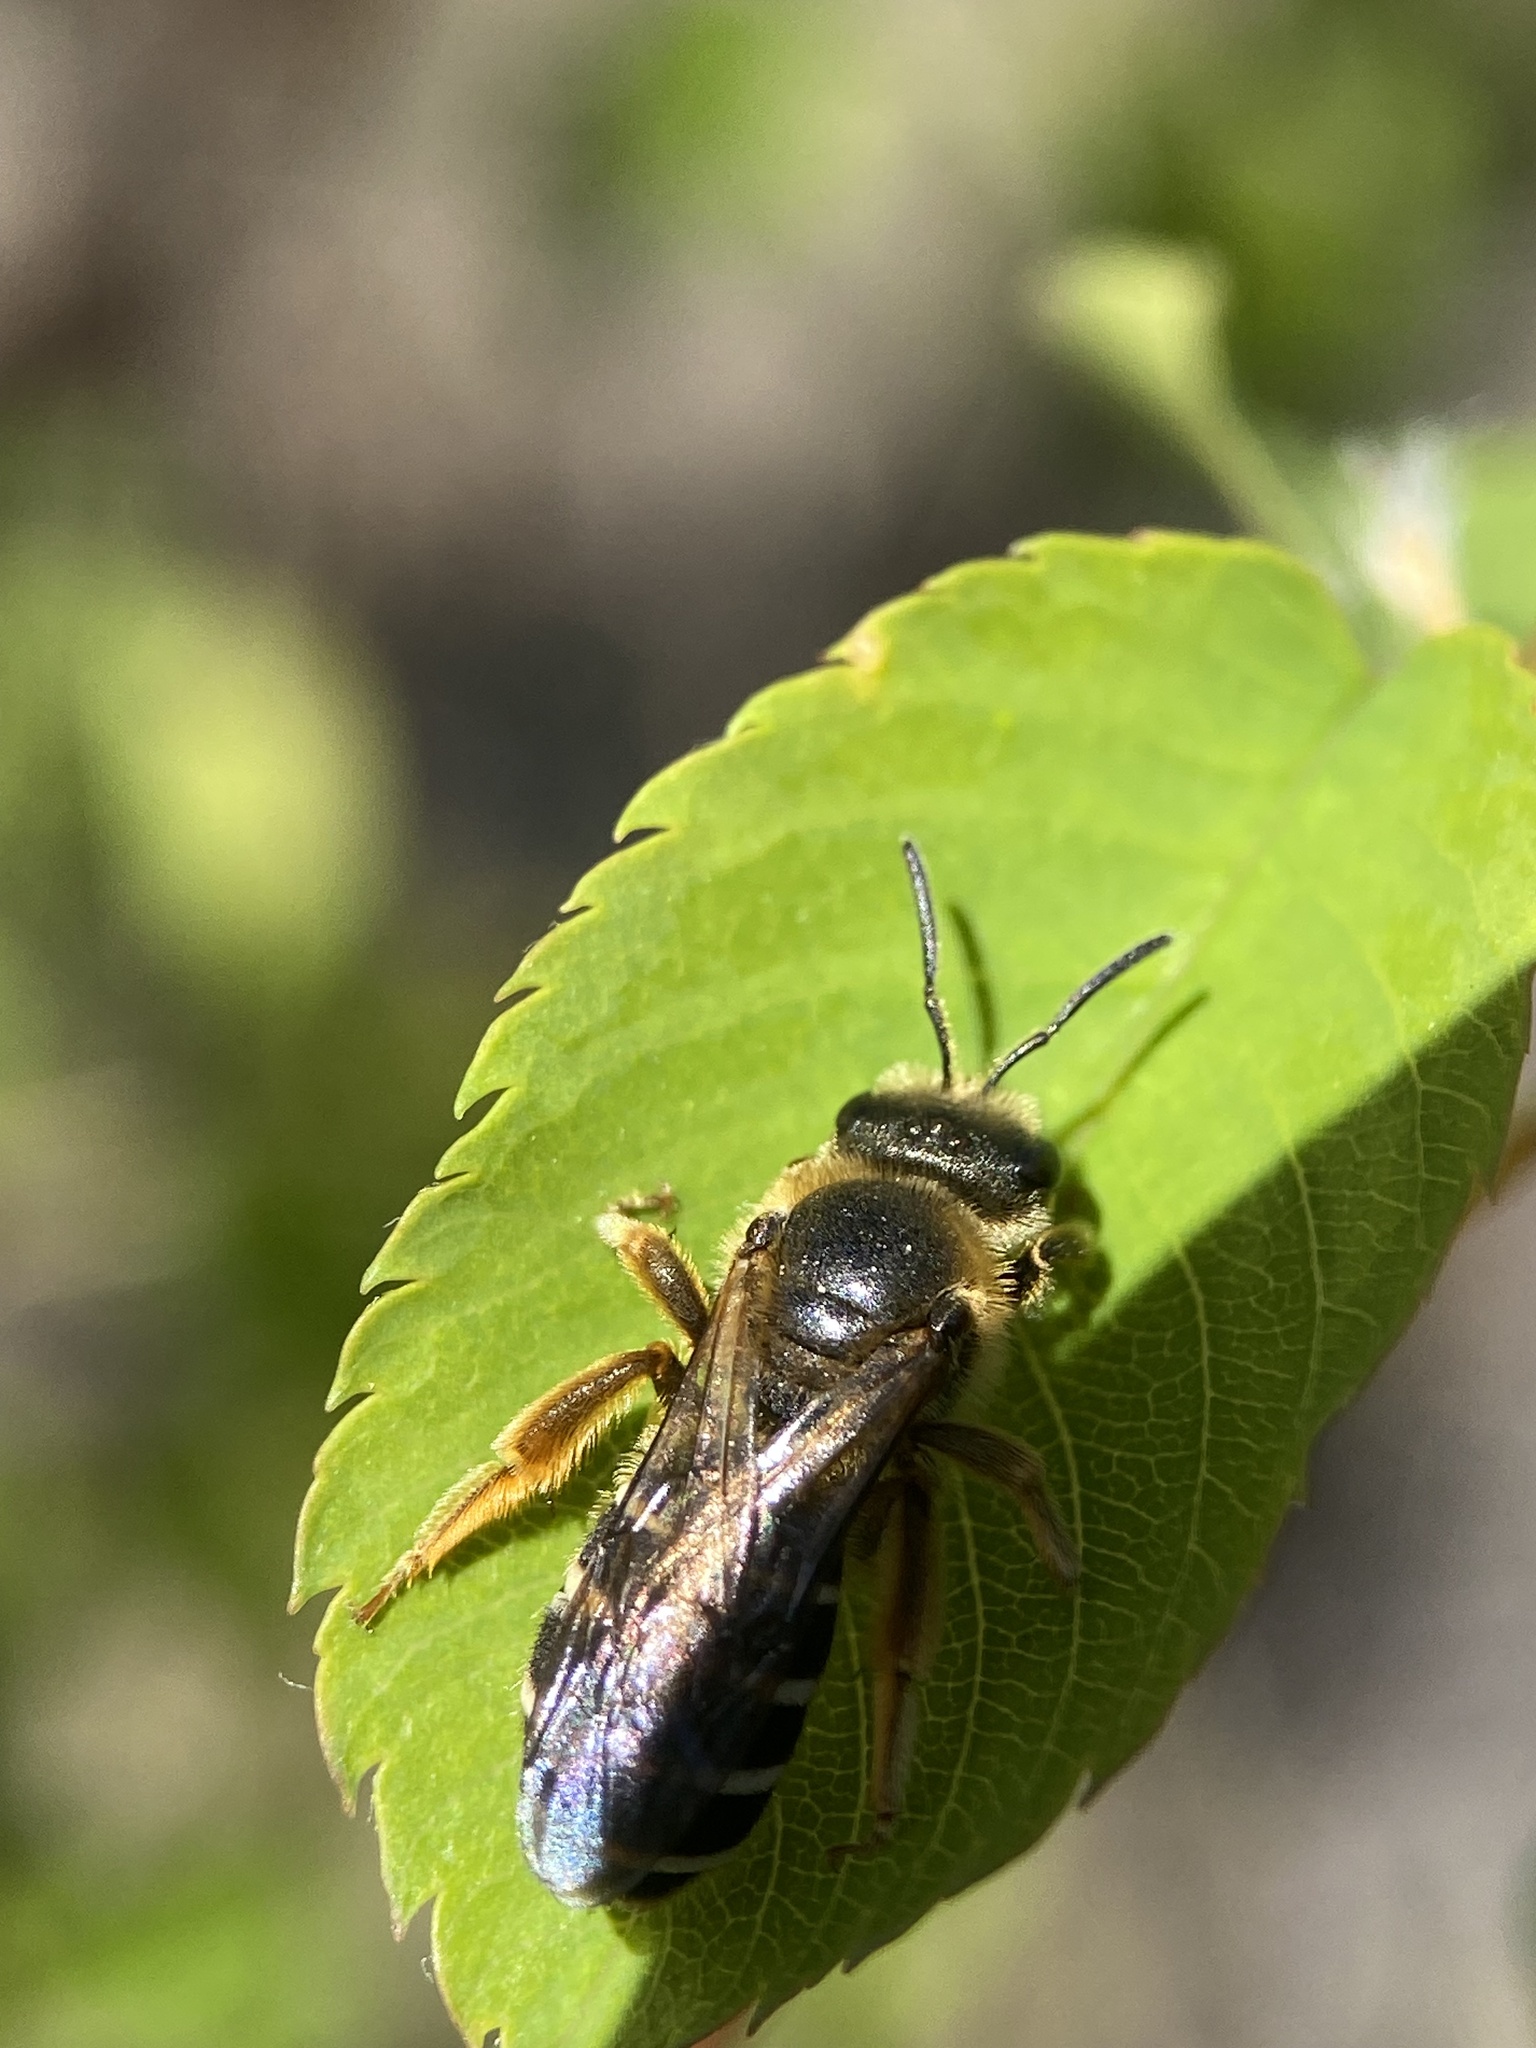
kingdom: Animalia
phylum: Arthropoda
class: Insecta
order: Hymenoptera
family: Halictidae
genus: Halictus
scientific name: Halictus rubicundus
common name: Orange-legged furrow bee
